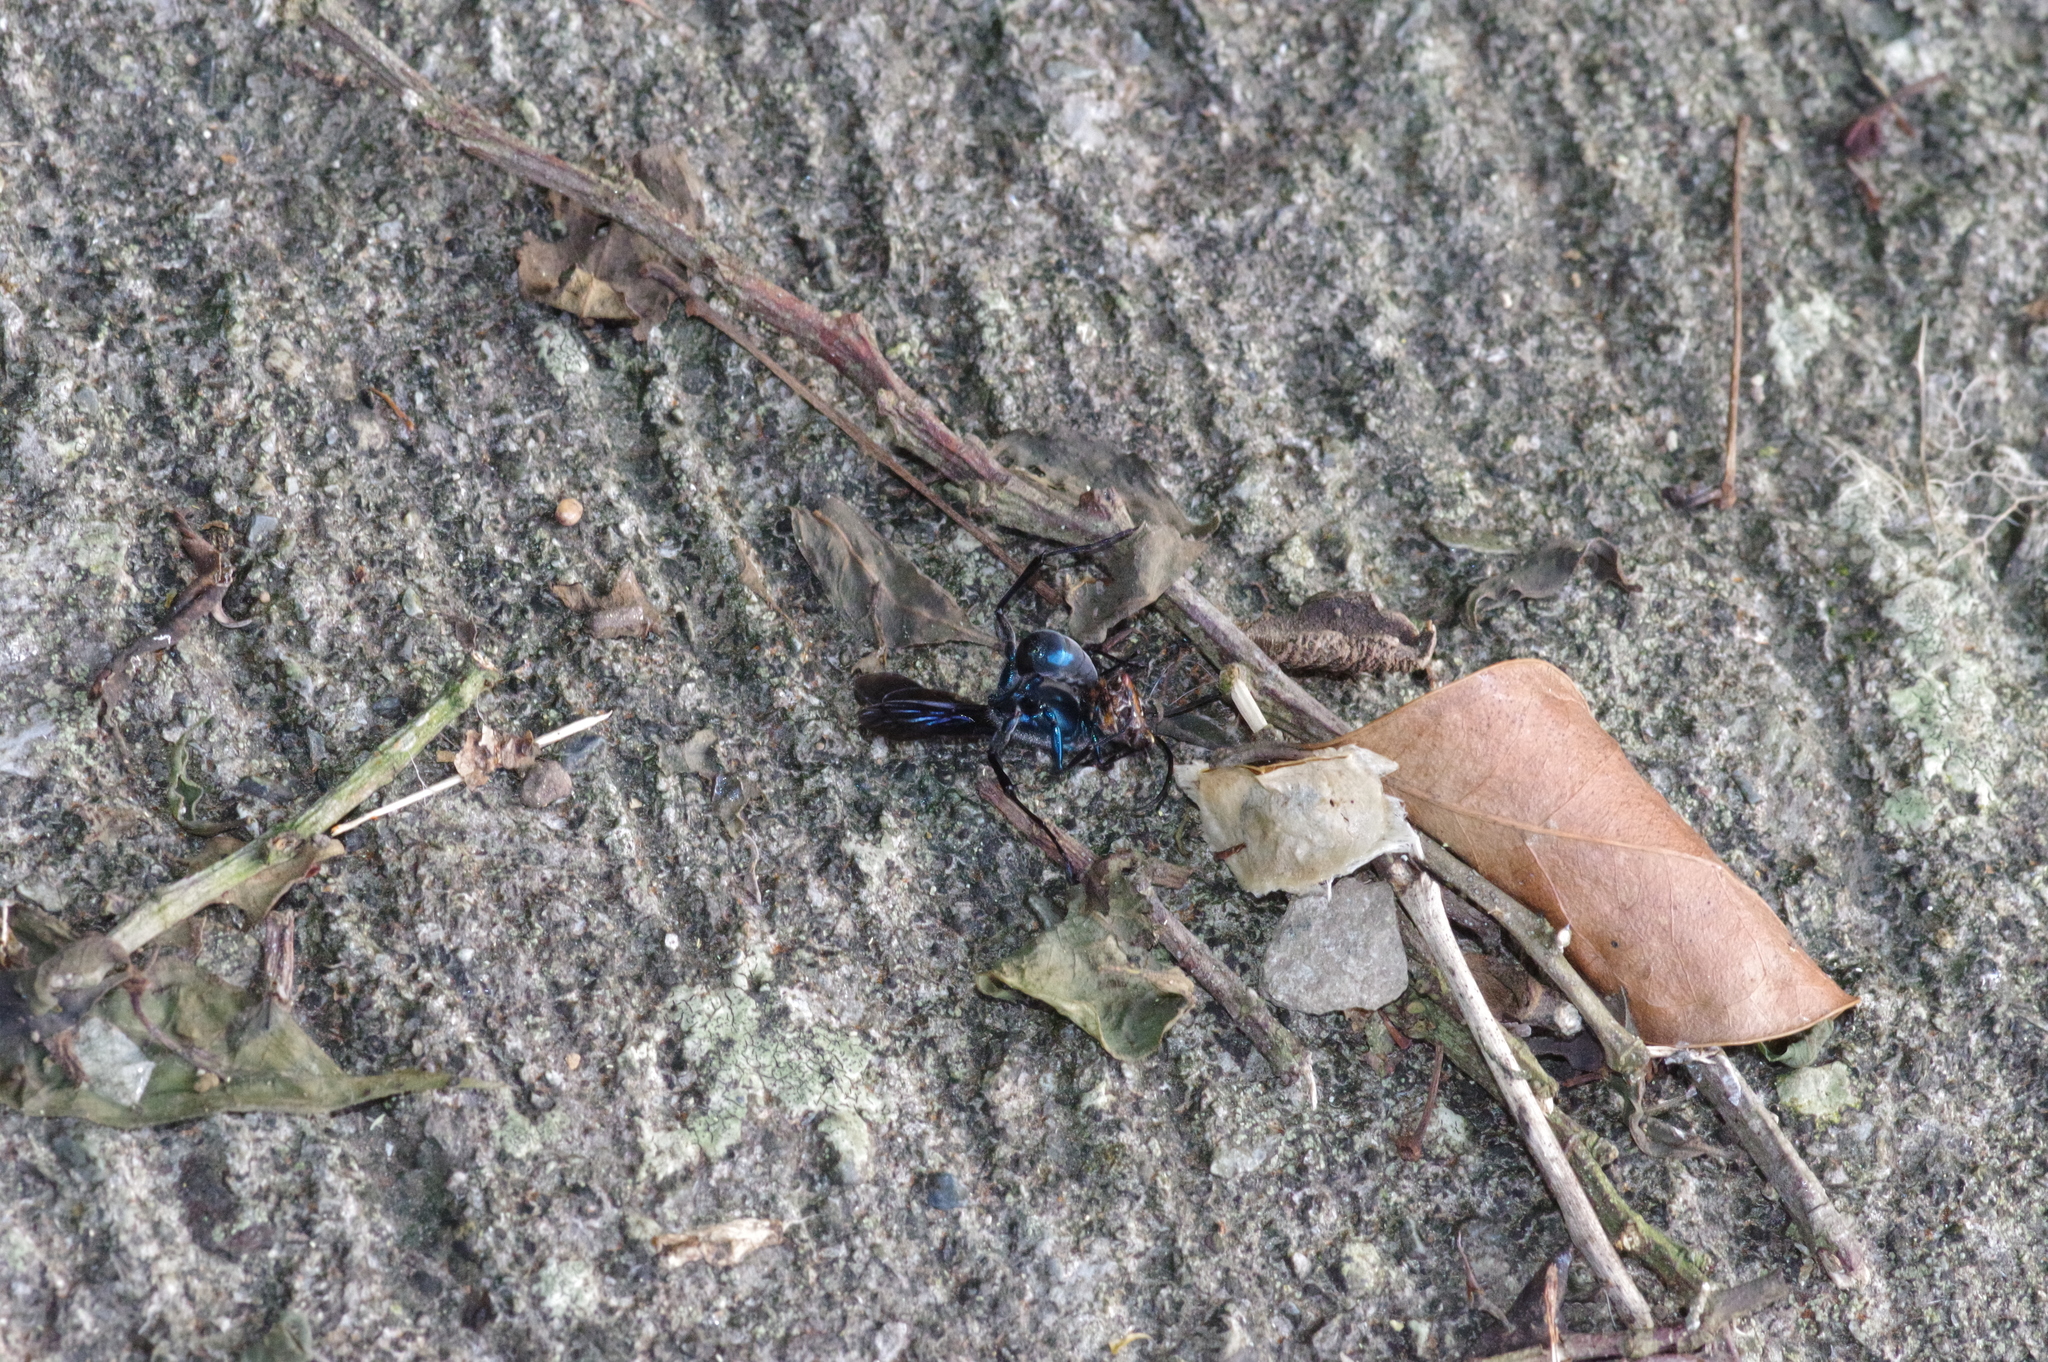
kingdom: Animalia
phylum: Arthropoda
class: Insecta
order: Hymenoptera
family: Sphecidae
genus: Chalybion
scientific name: Chalybion japonicum
